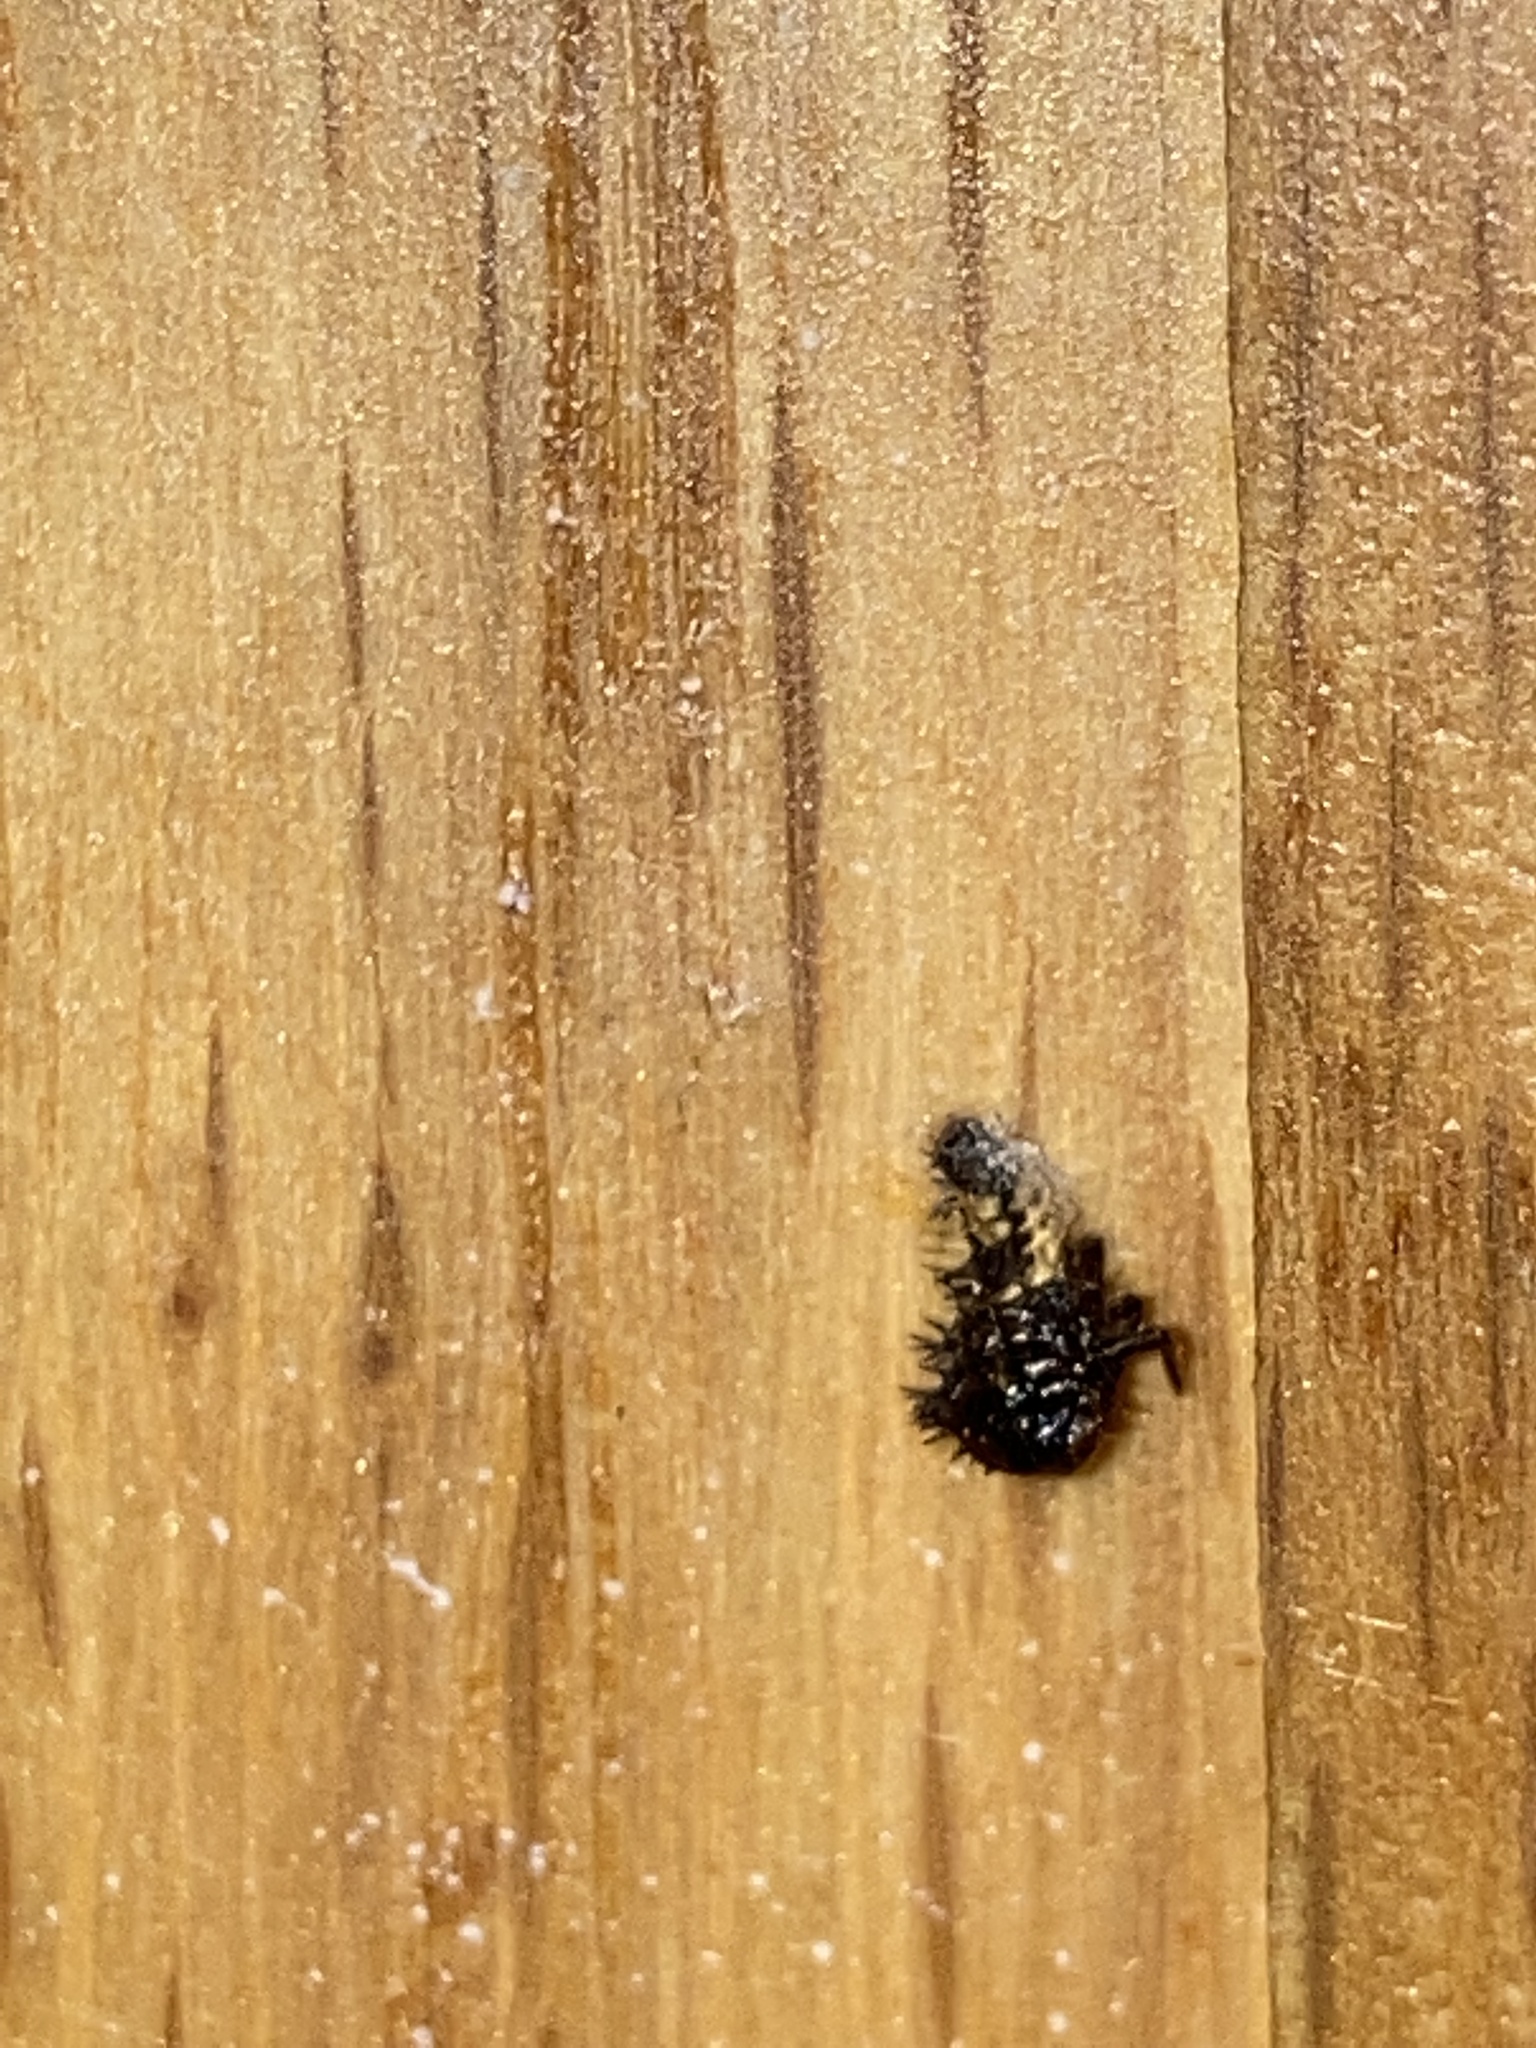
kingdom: Animalia
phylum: Arthropoda
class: Insecta
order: Coleoptera
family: Coccinellidae
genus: Harmonia
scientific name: Harmonia axyridis
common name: Harlequin ladybird
